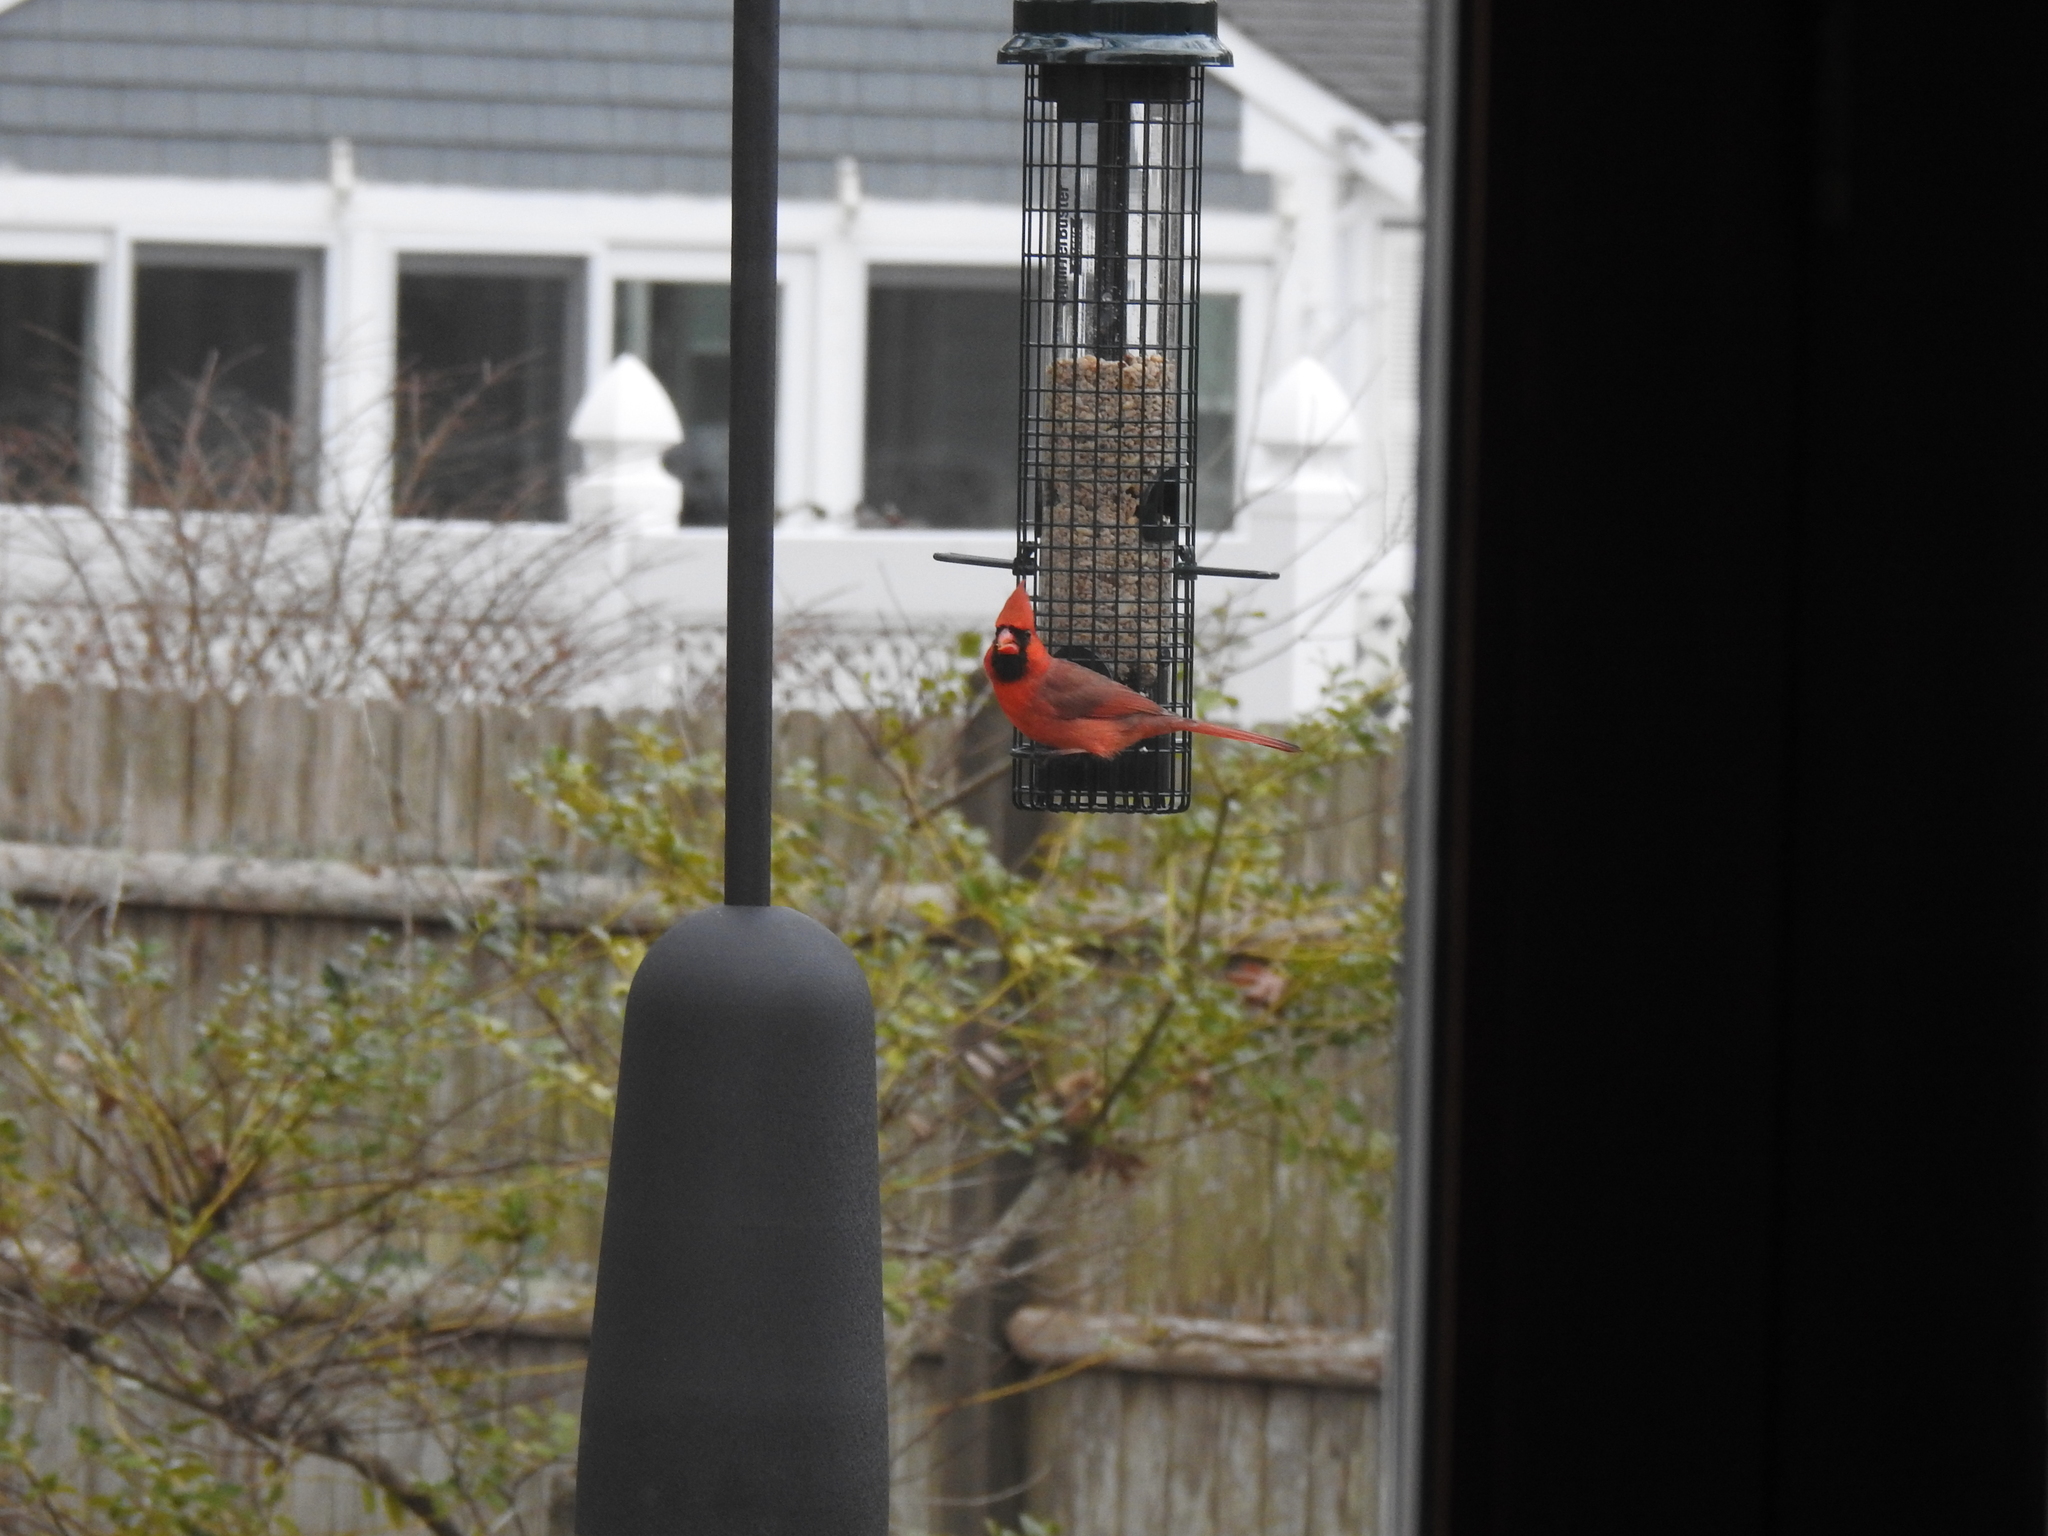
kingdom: Animalia
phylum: Chordata
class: Aves
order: Passeriformes
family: Cardinalidae
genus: Cardinalis
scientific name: Cardinalis cardinalis
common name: Northern cardinal
